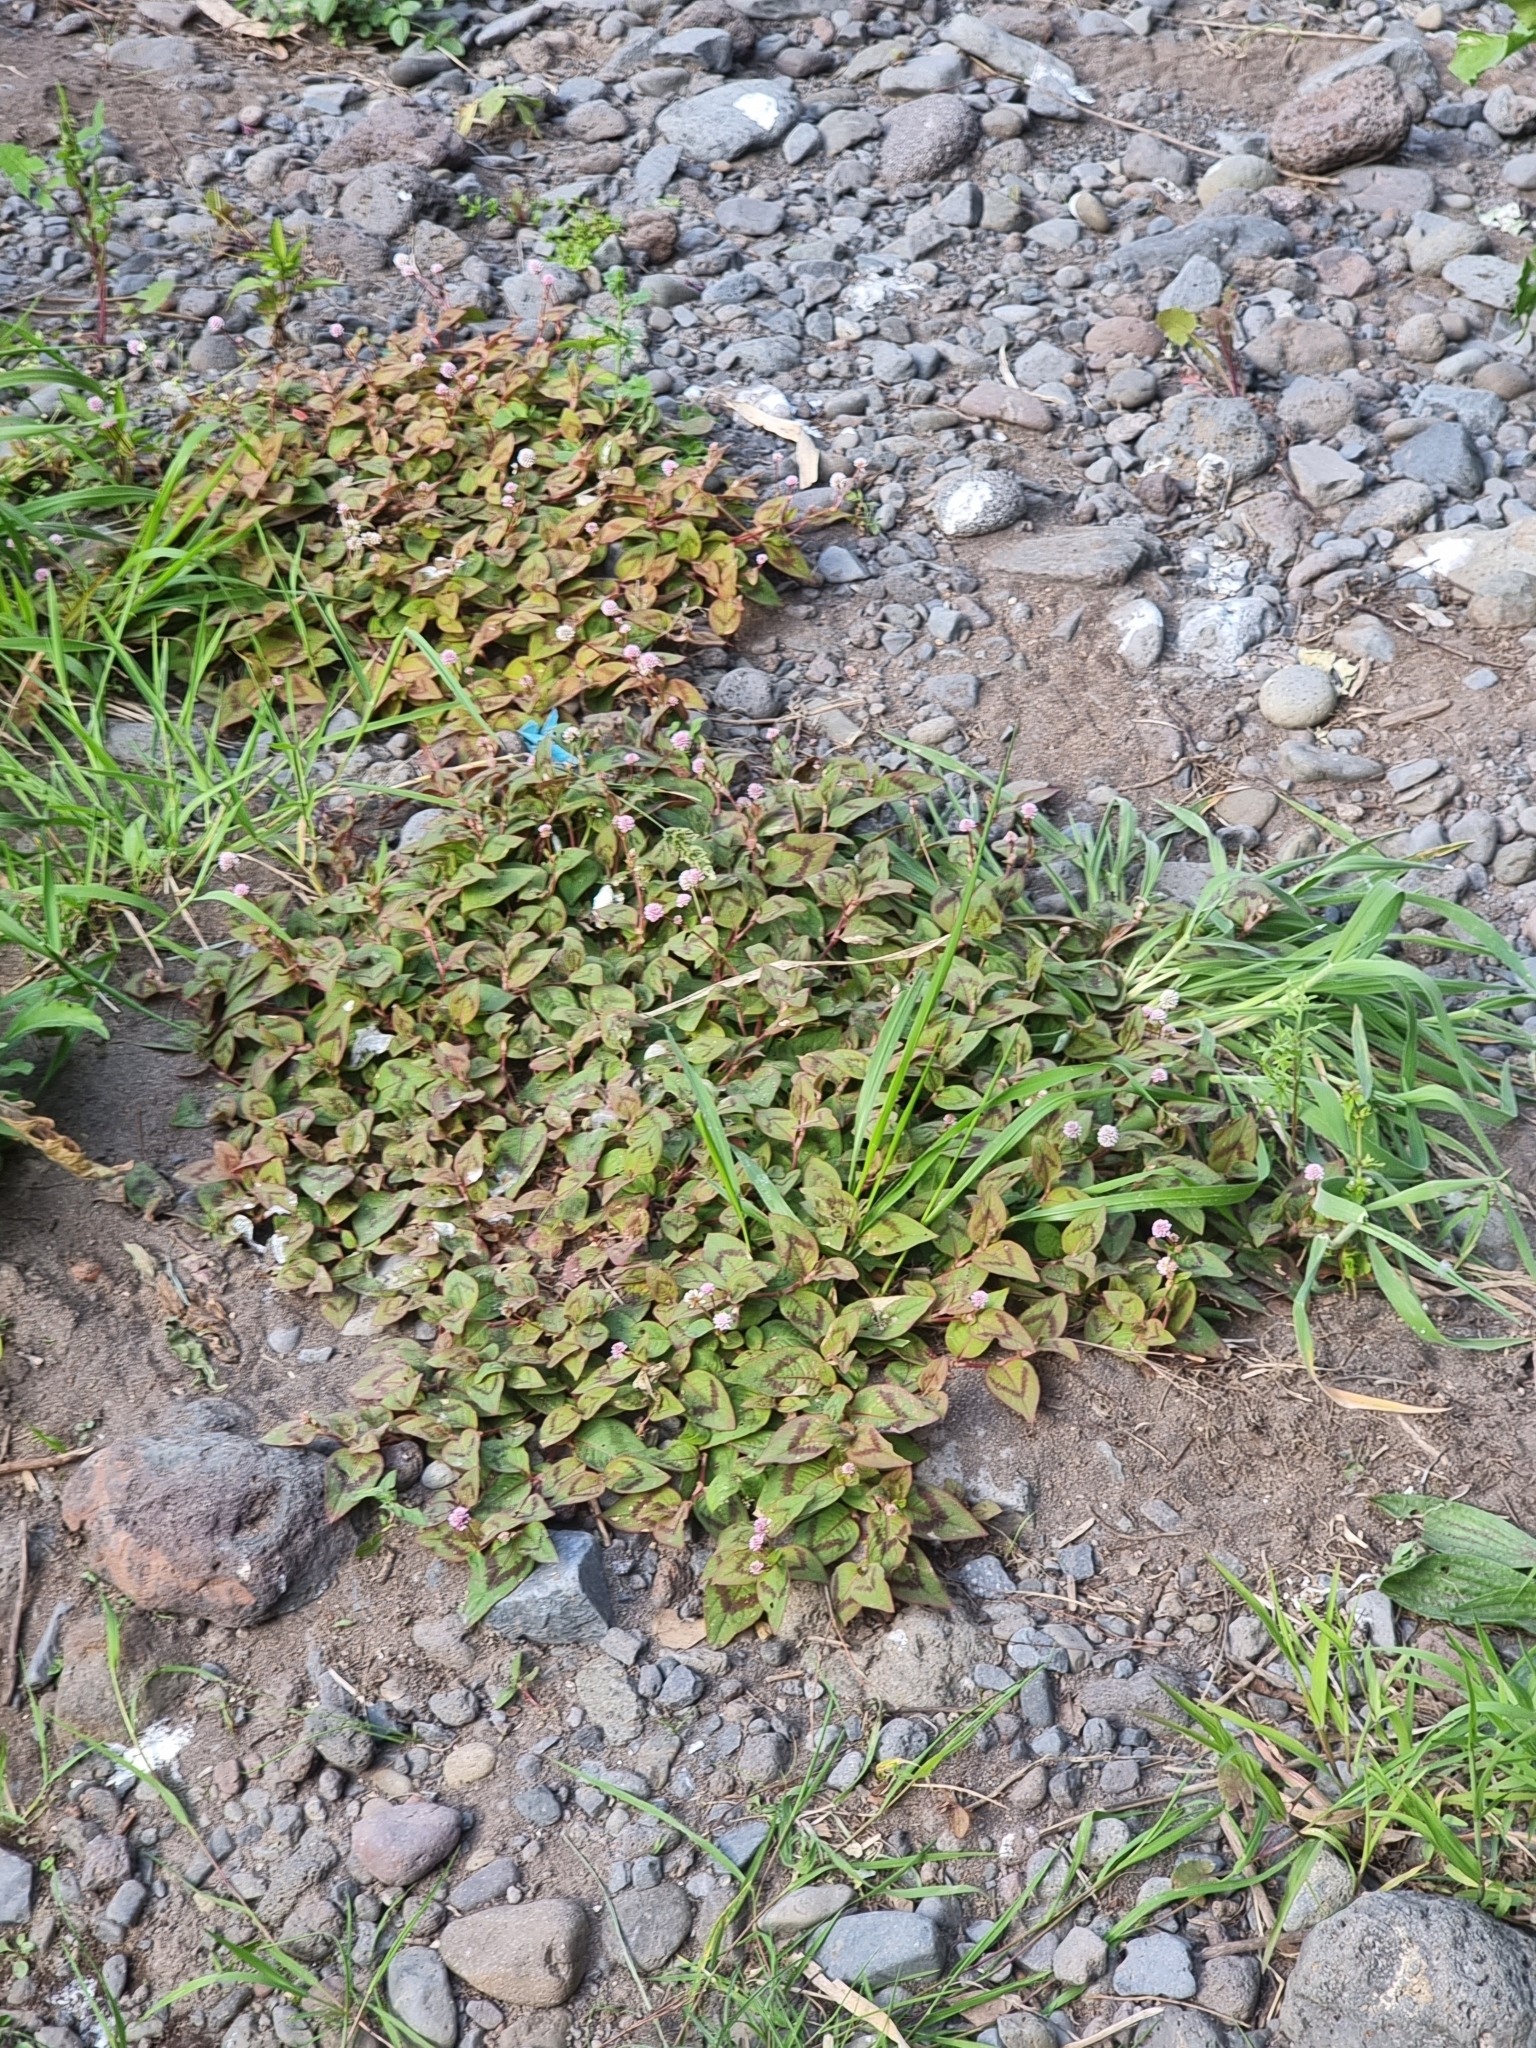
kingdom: Plantae
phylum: Tracheophyta
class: Magnoliopsida
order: Caryophyllales
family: Polygonaceae
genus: Persicaria
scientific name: Persicaria capitata
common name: Pinkhead smartweed
